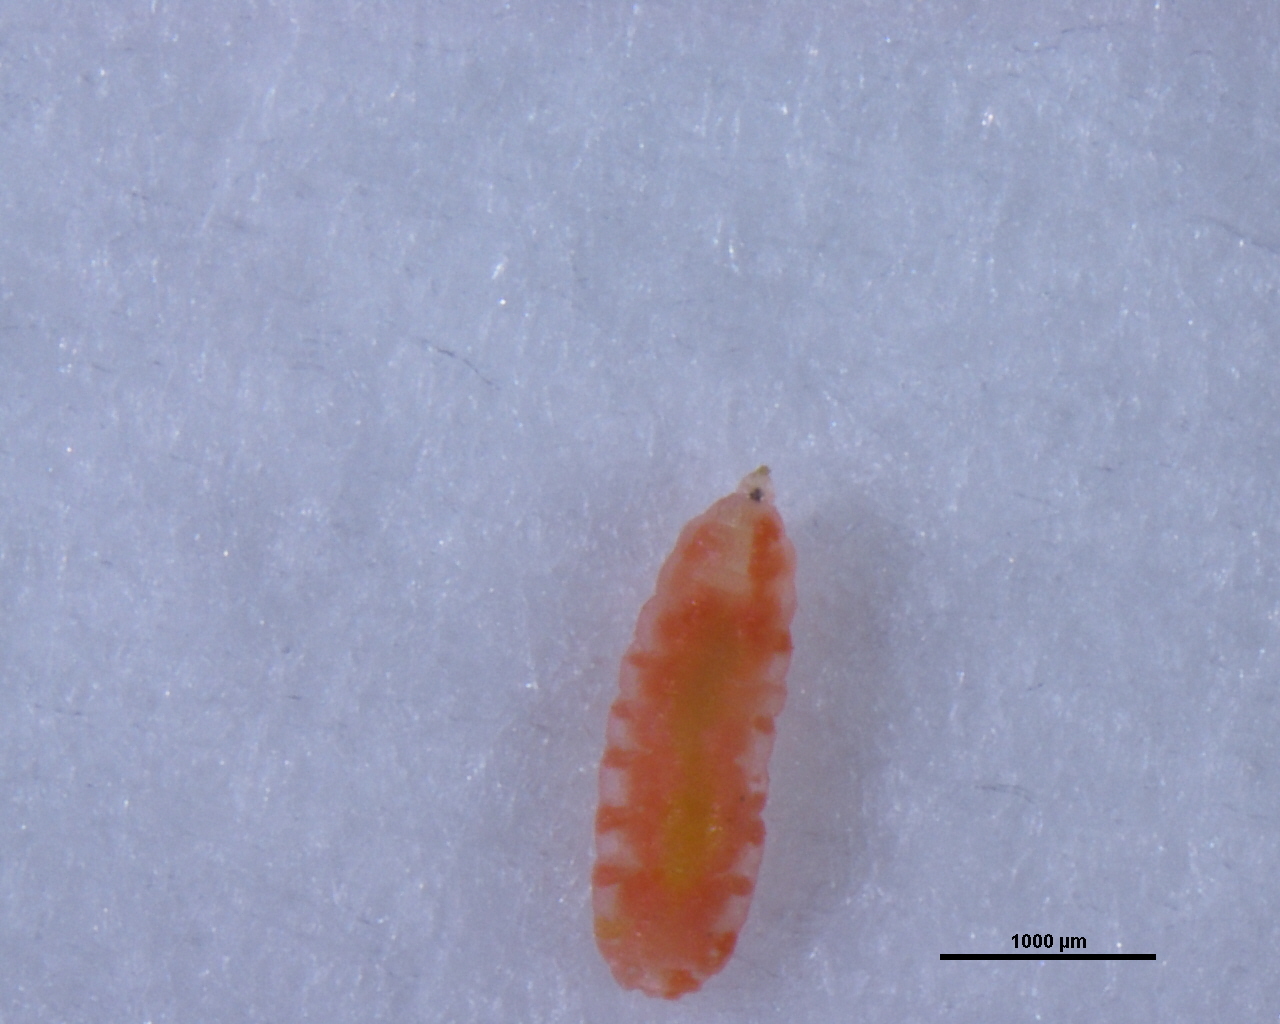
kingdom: Animalia
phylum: Arthropoda
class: Insecta
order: Diptera
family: Cecidomyiidae
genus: Dasineura
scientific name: Dasineura mali
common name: Apple leaf midge
